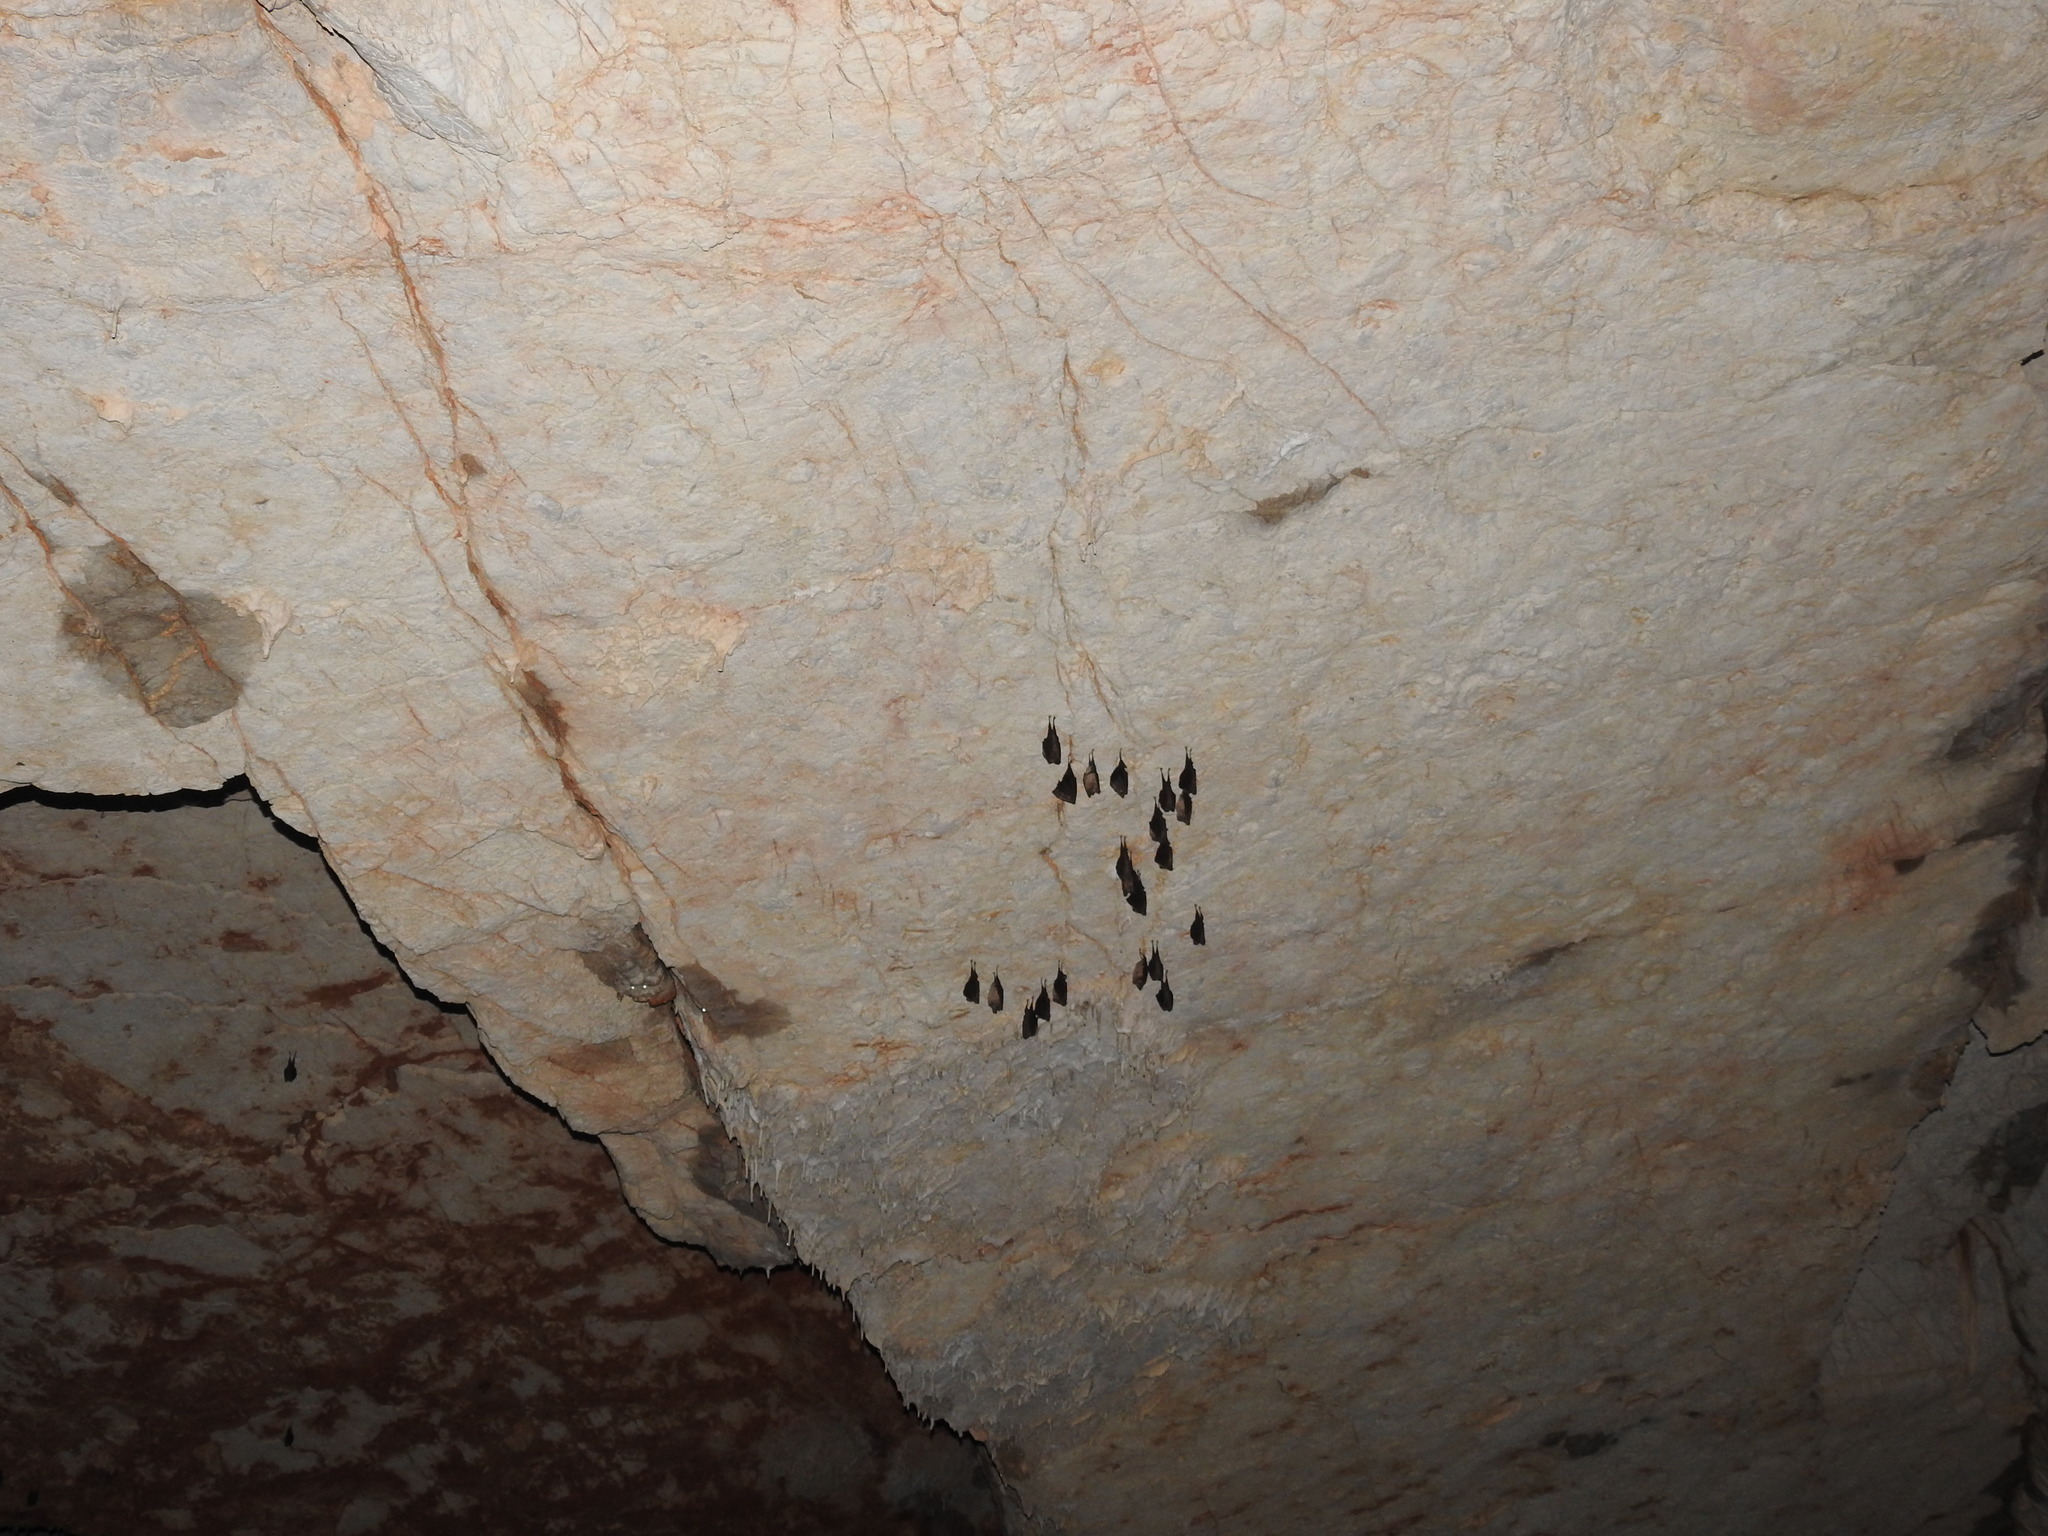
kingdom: Animalia
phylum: Chordata
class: Mammalia
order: Chiroptera
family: Rhinolophidae
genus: Rhinolophus
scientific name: Rhinolophus ferrumequinum
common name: Greater horseshoe bat
